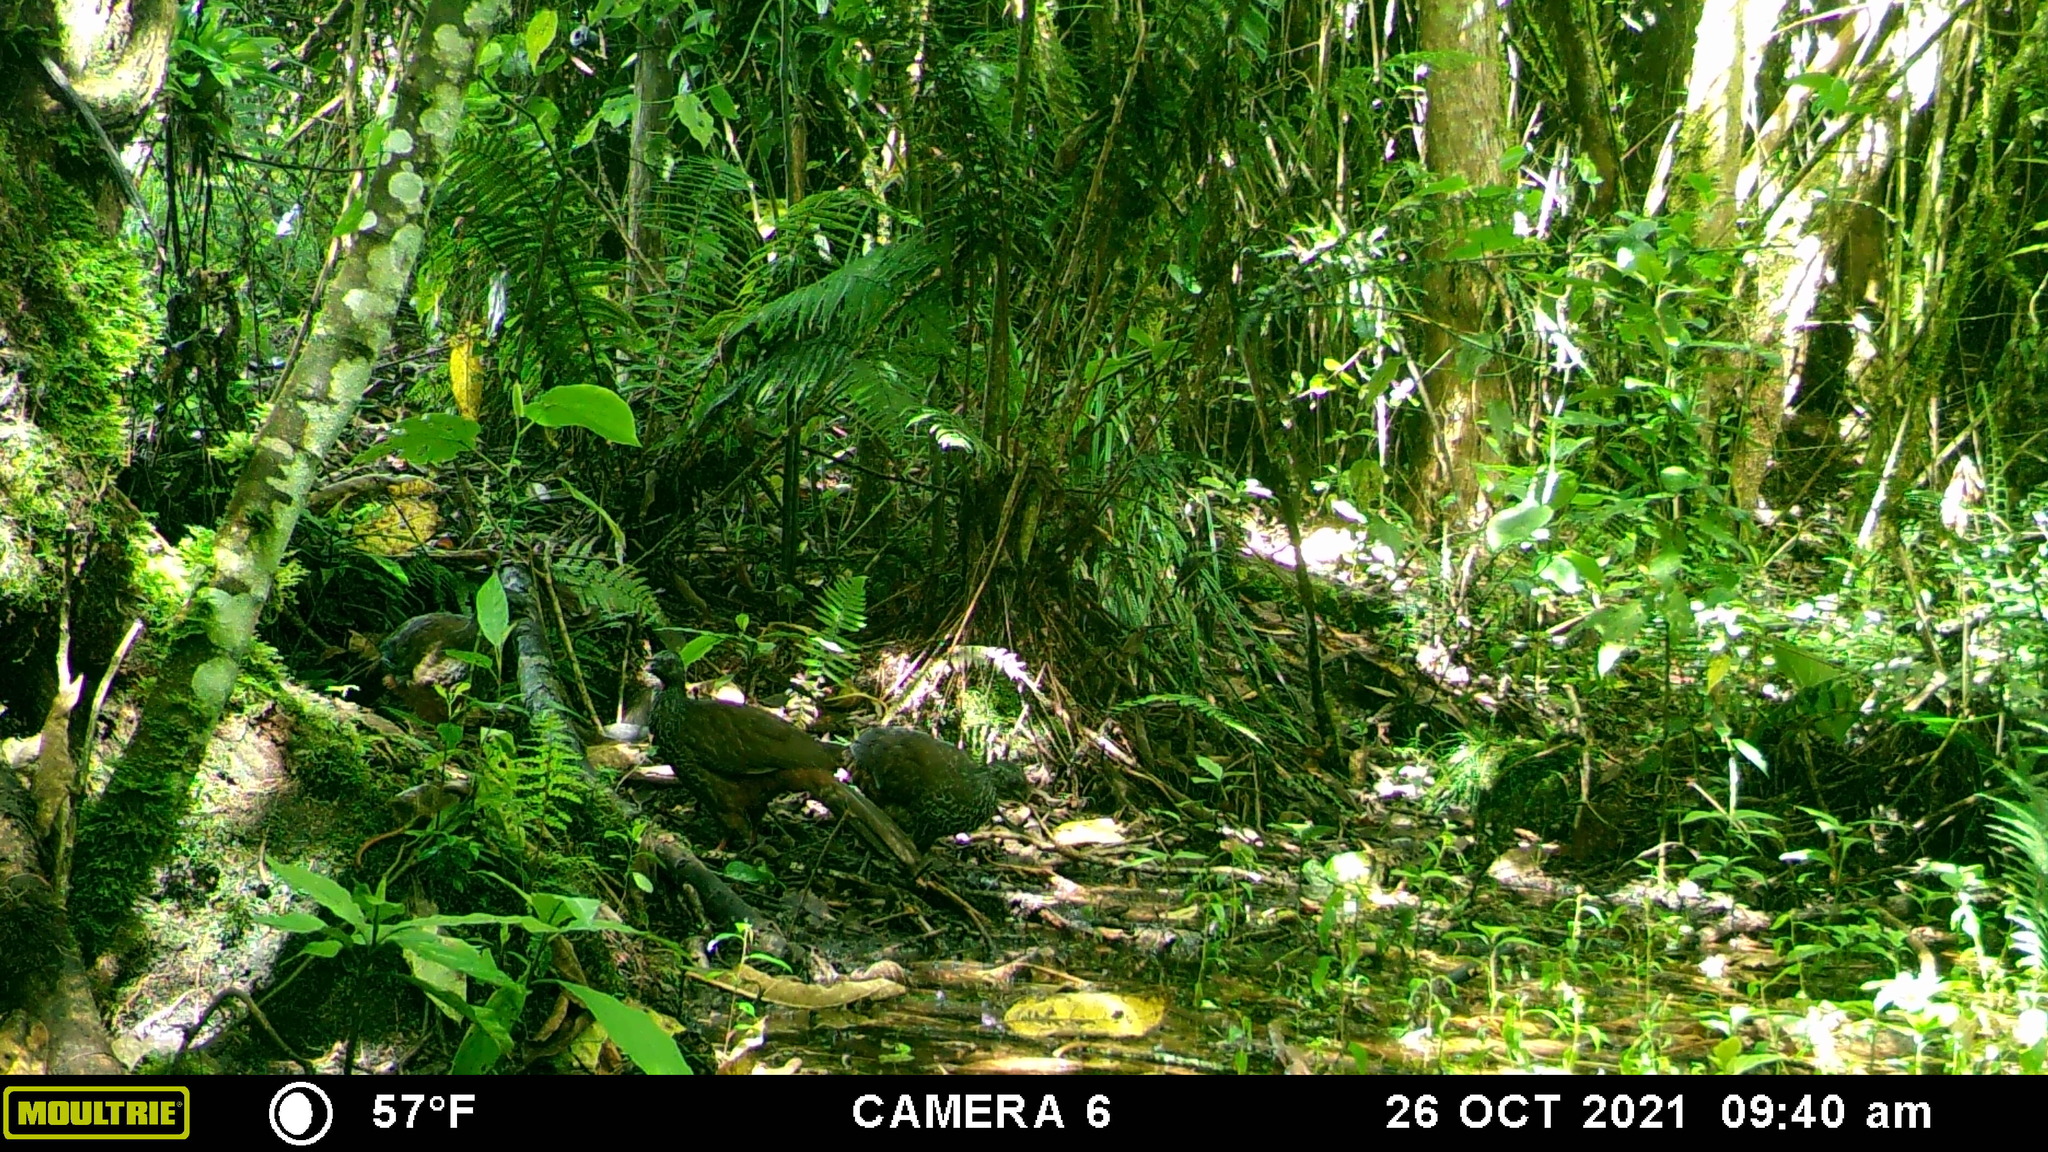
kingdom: Animalia
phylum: Chordata
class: Aves
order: Galliformes
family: Cracidae
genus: Penelope
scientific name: Penelope montagnii
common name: Andean guan
